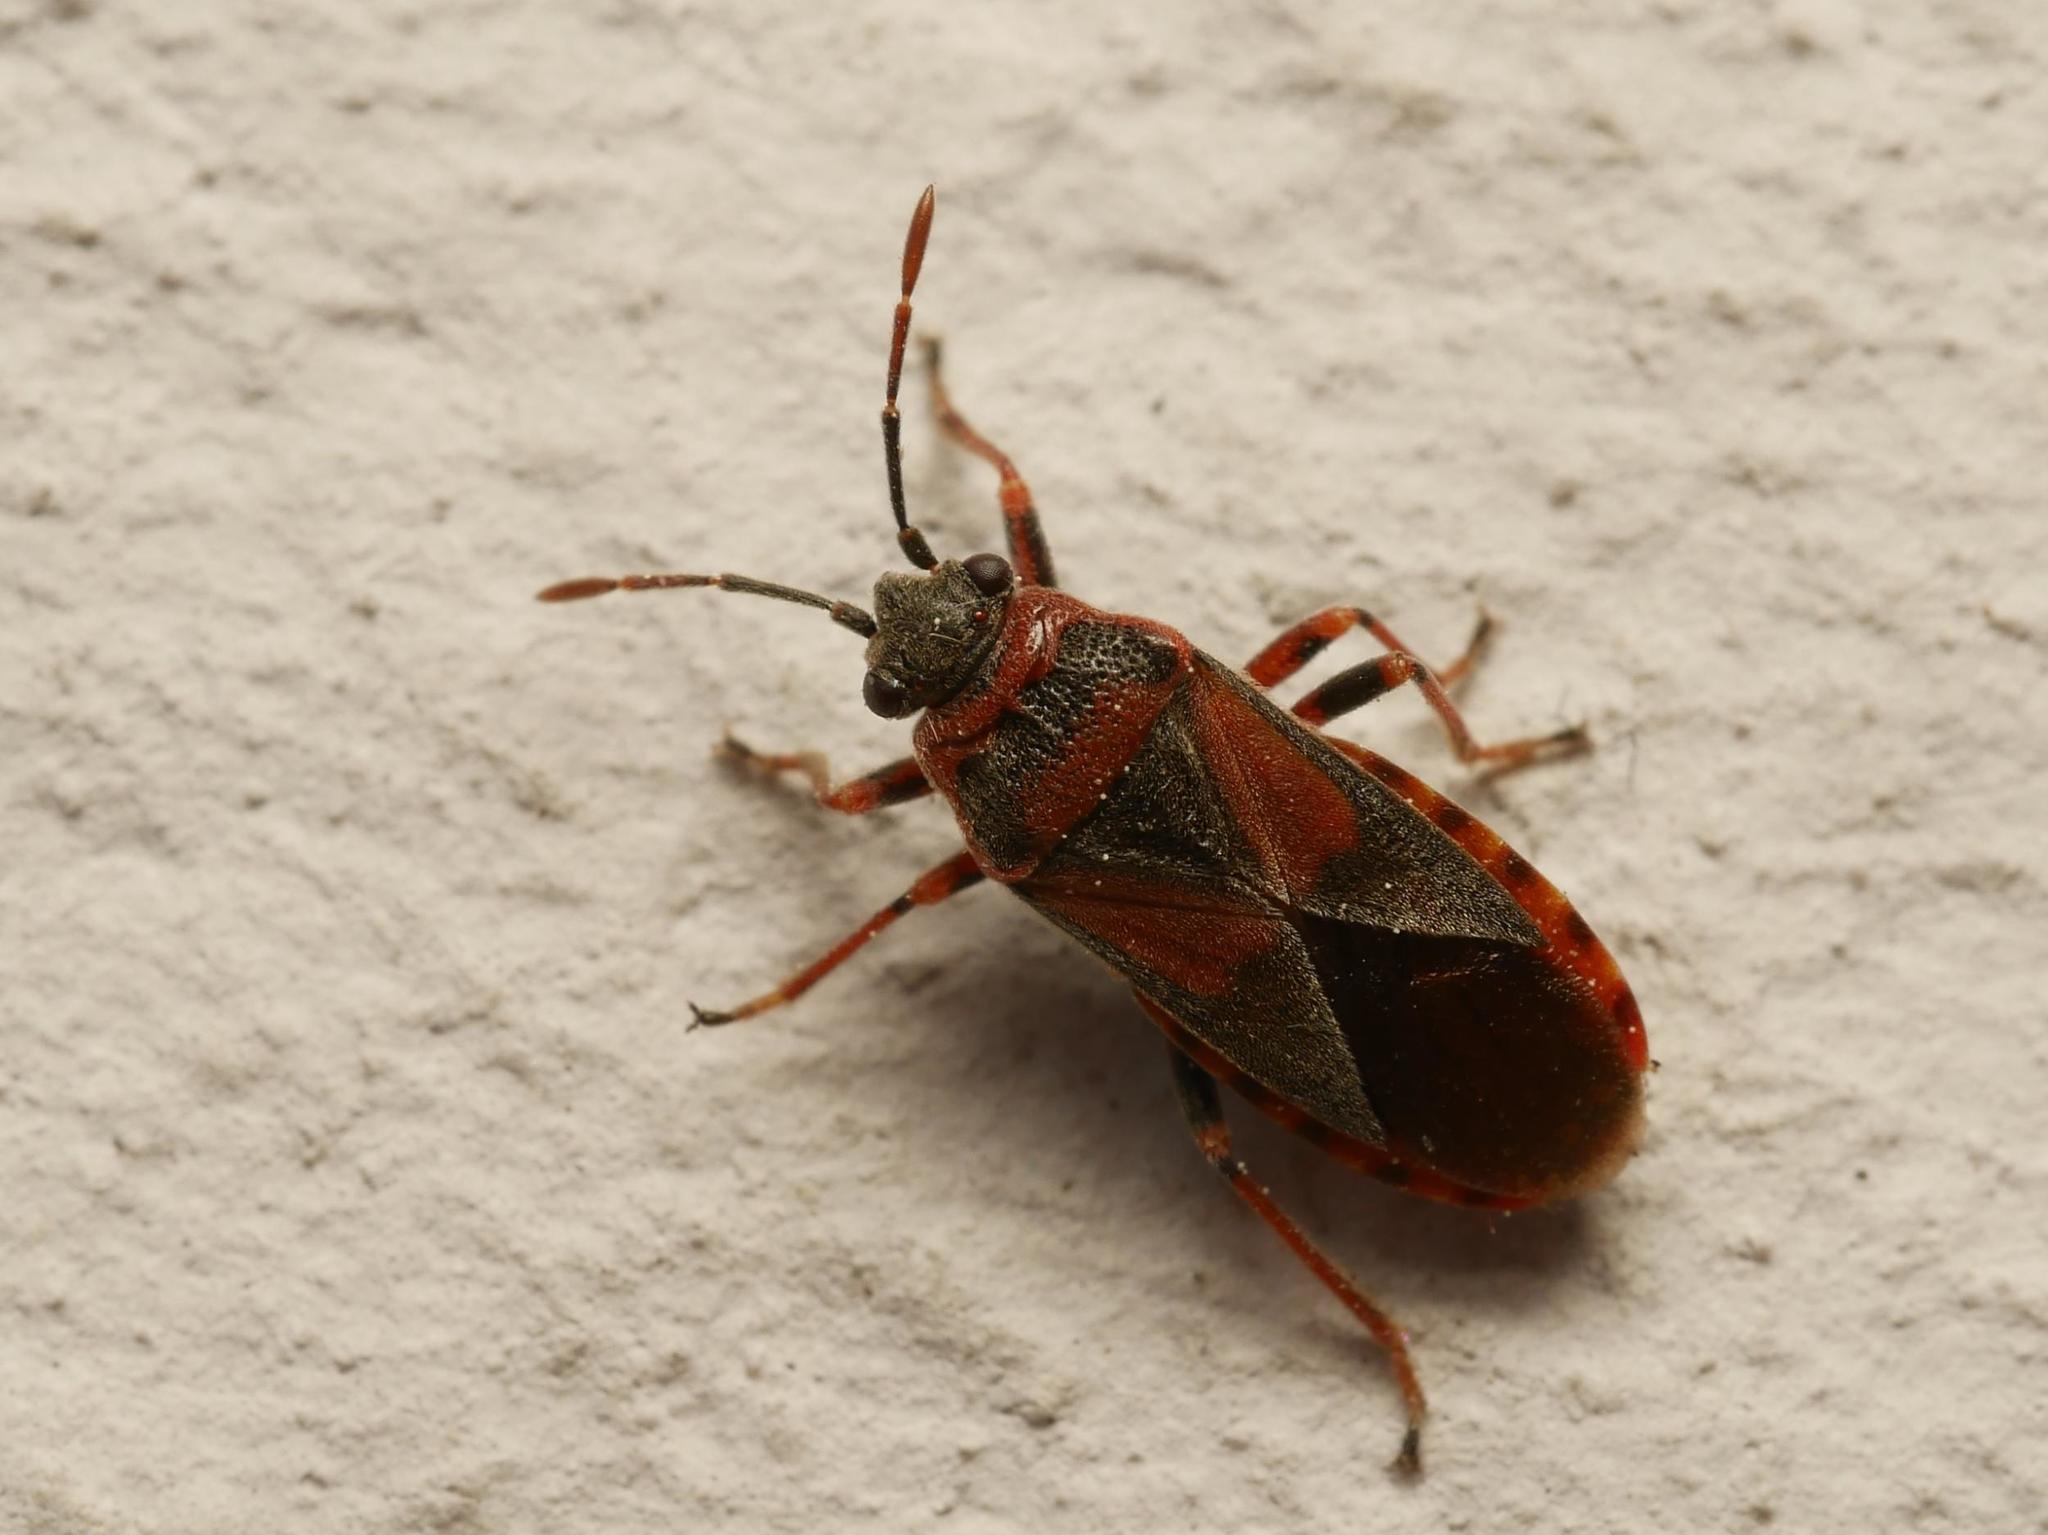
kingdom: Animalia
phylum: Arthropoda
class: Insecta
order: Hemiptera
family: Lygaeidae
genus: Arocatus
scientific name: Arocatus melanocephalus
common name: Lygaeid bug
